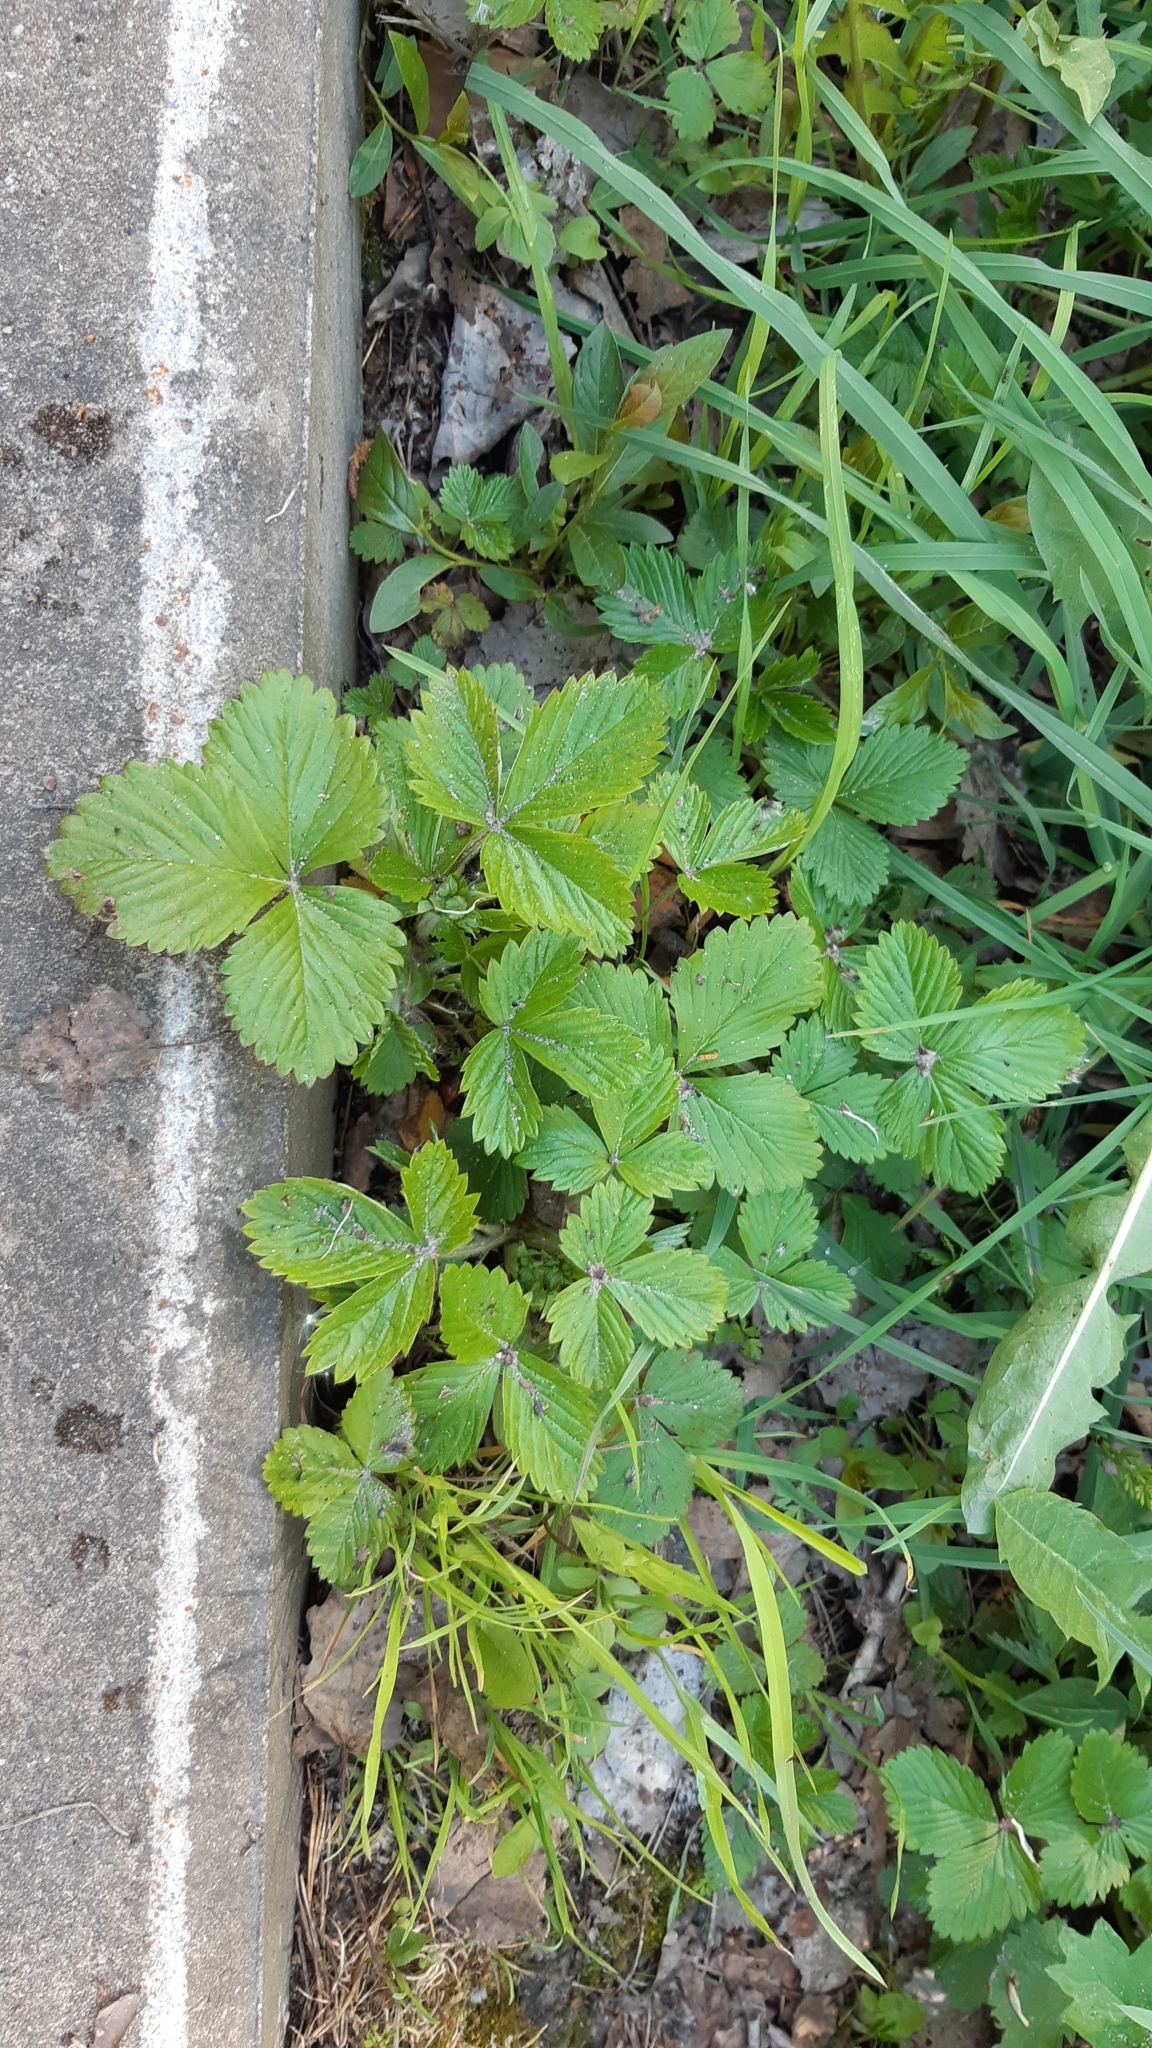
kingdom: Plantae
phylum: Tracheophyta
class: Magnoliopsida
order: Rosales
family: Rosaceae
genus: Fragaria
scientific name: Fragaria vesca
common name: Wild strawberry
